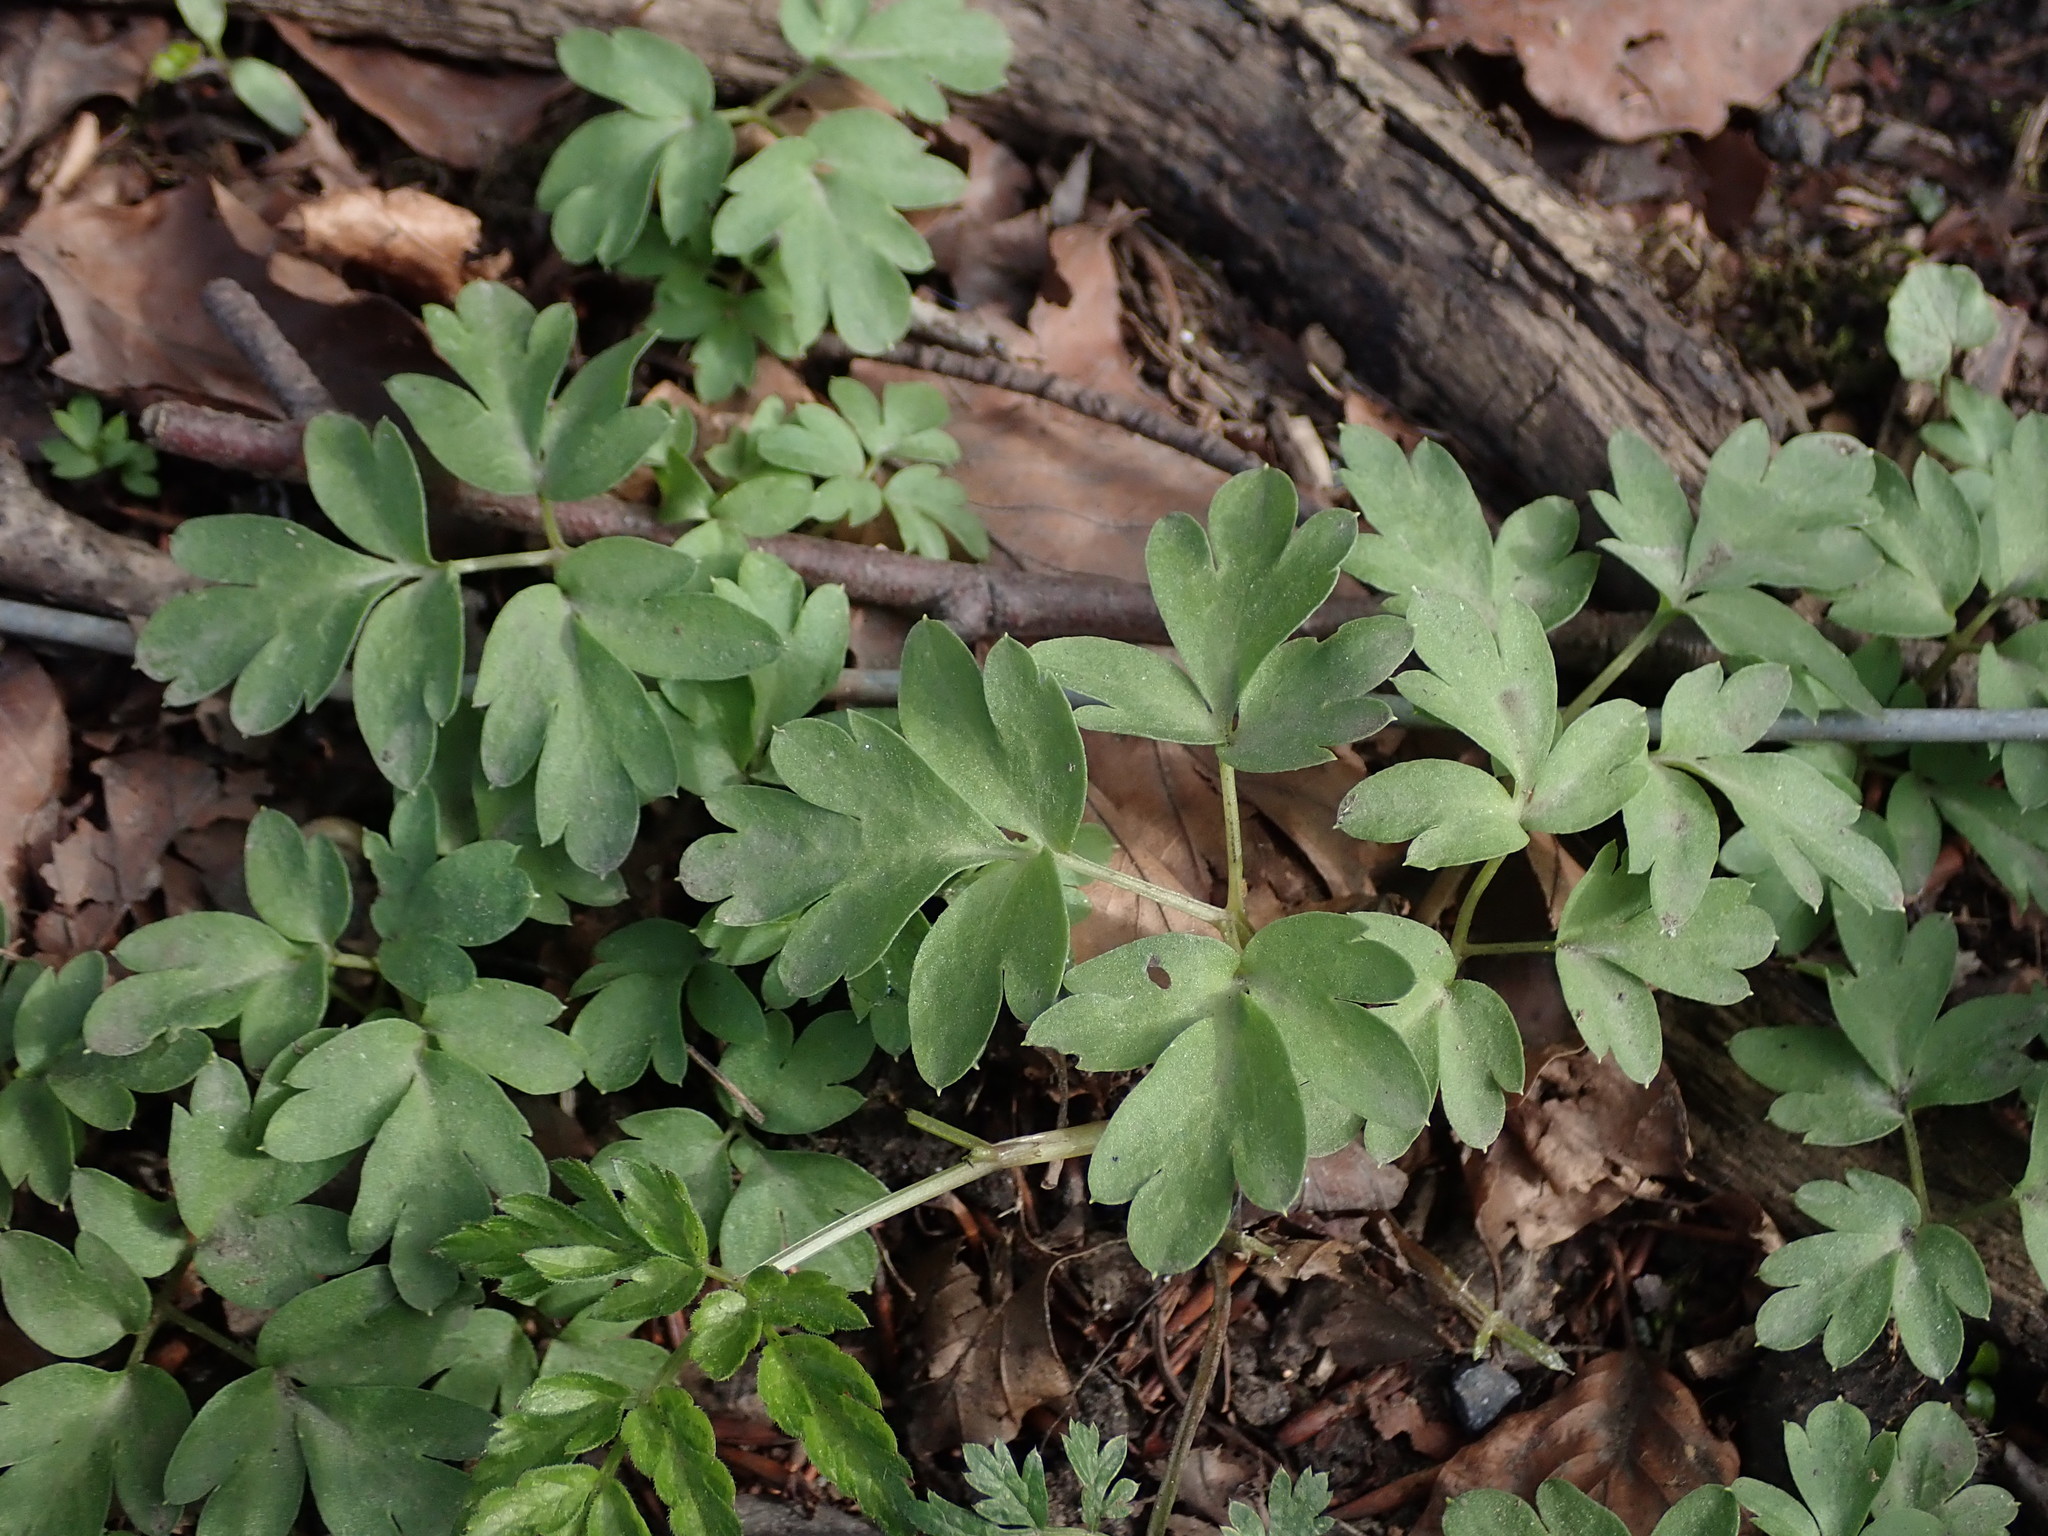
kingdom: Plantae
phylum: Tracheophyta
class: Magnoliopsida
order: Dipsacales
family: Viburnaceae
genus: Adoxa
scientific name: Adoxa moschatellina
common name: Moschatel
